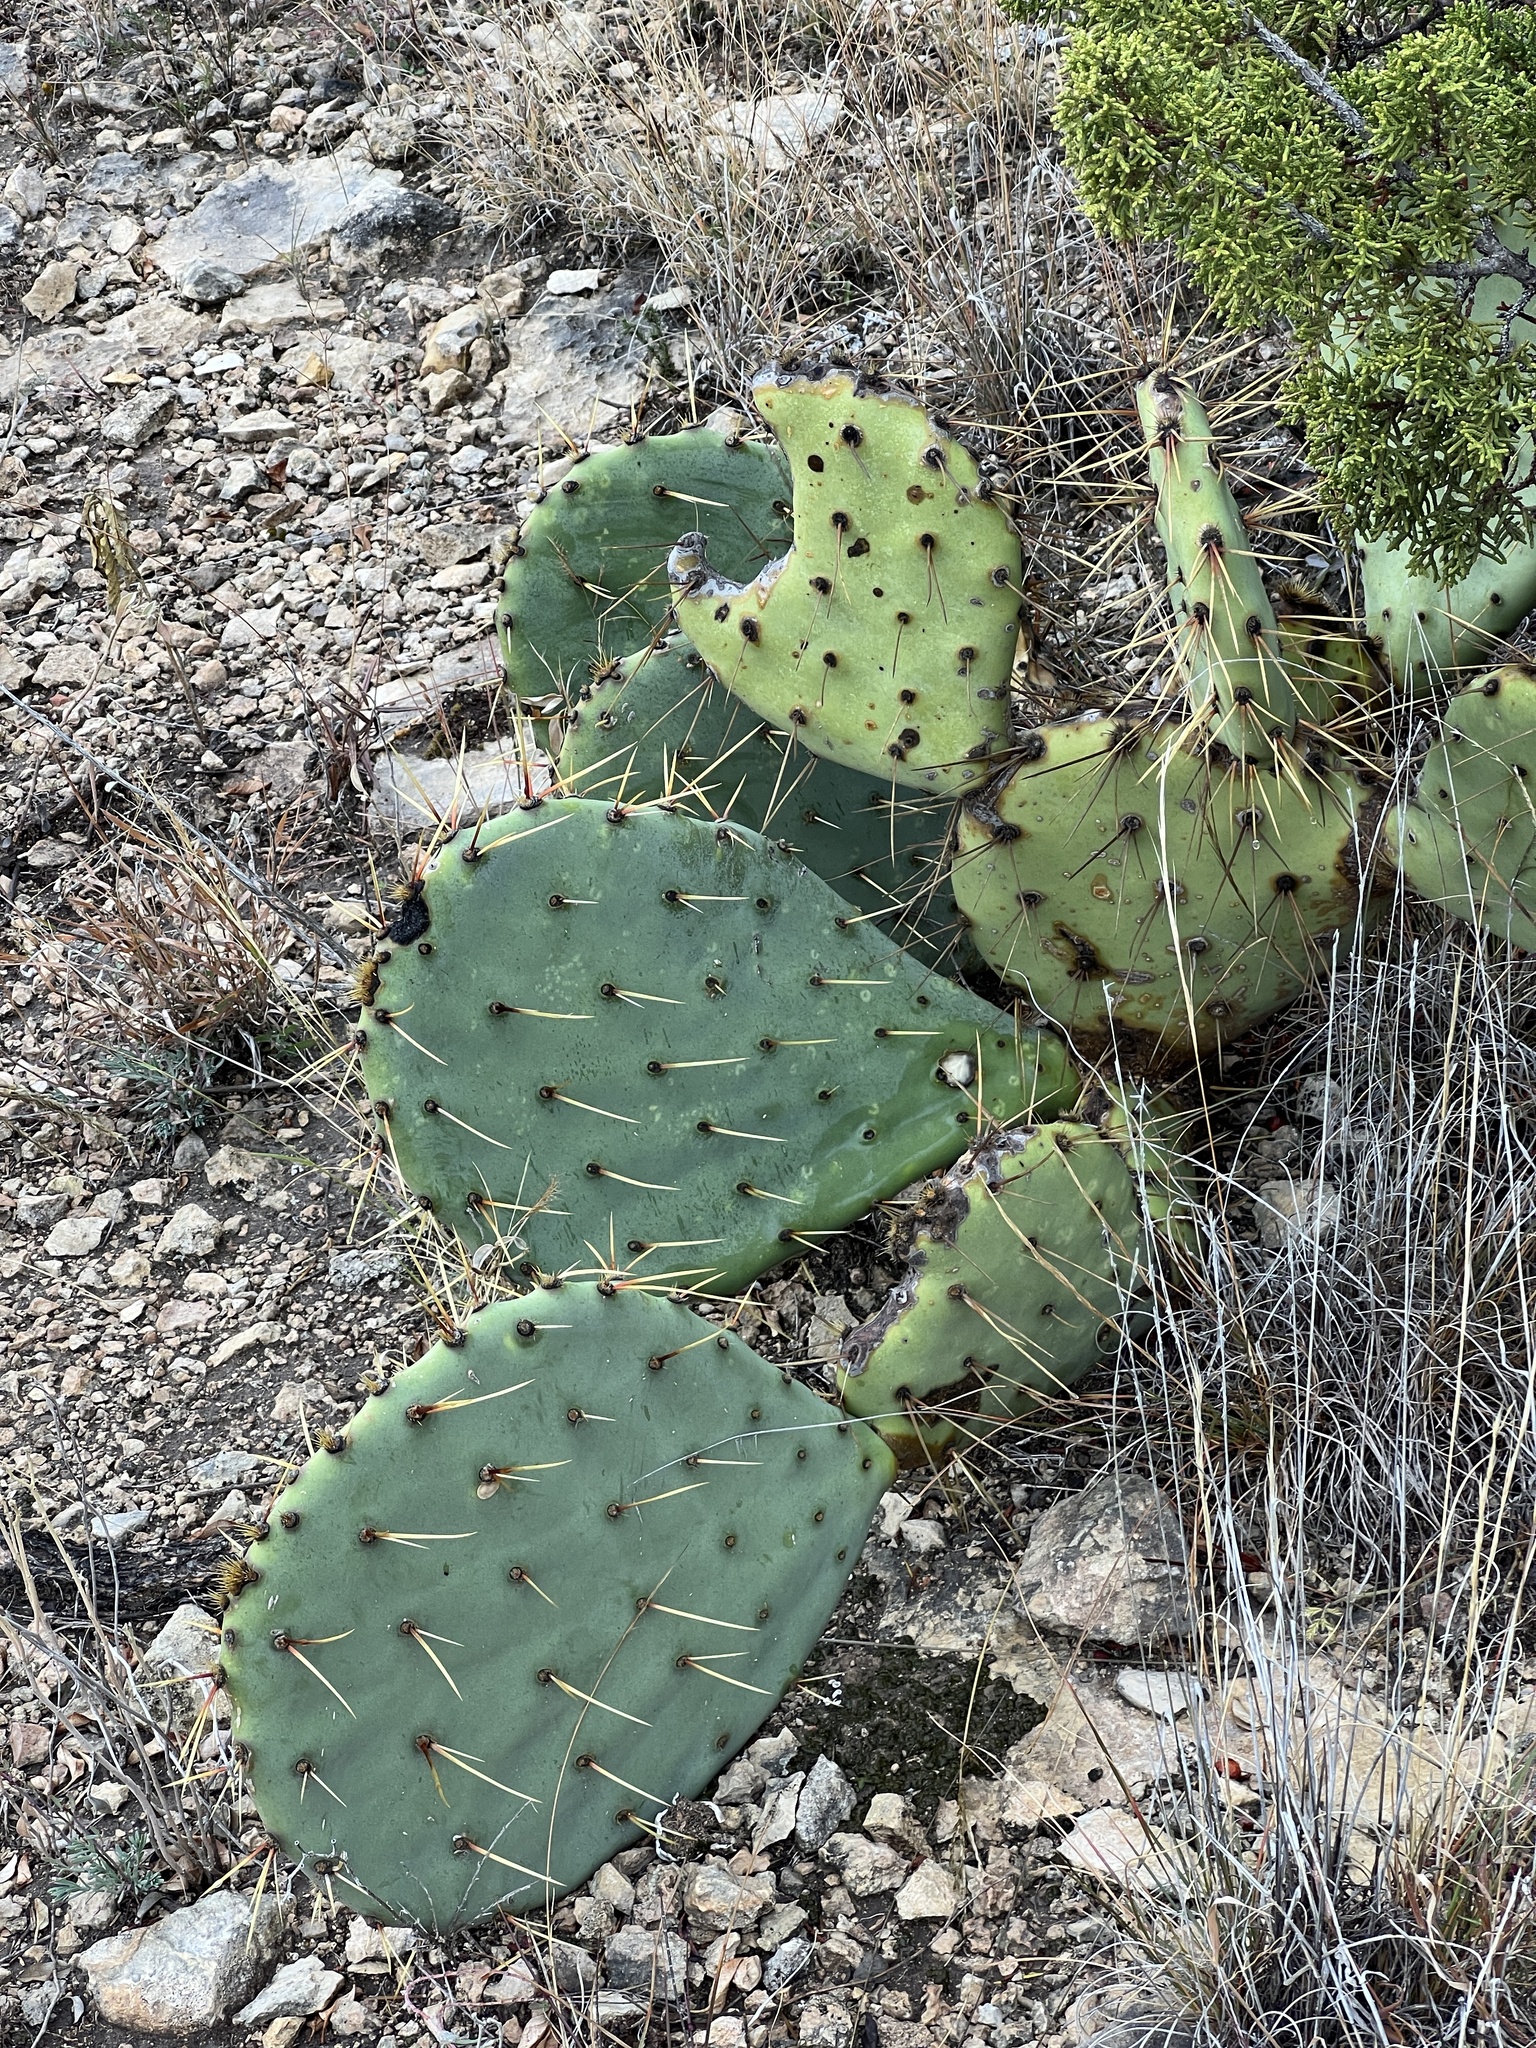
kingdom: Plantae
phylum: Tracheophyta
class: Magnoliopsida
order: Caryophyllales
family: Cactaceae
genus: Opuntia
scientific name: Opuntia engelmannii
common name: Cactus-apple
